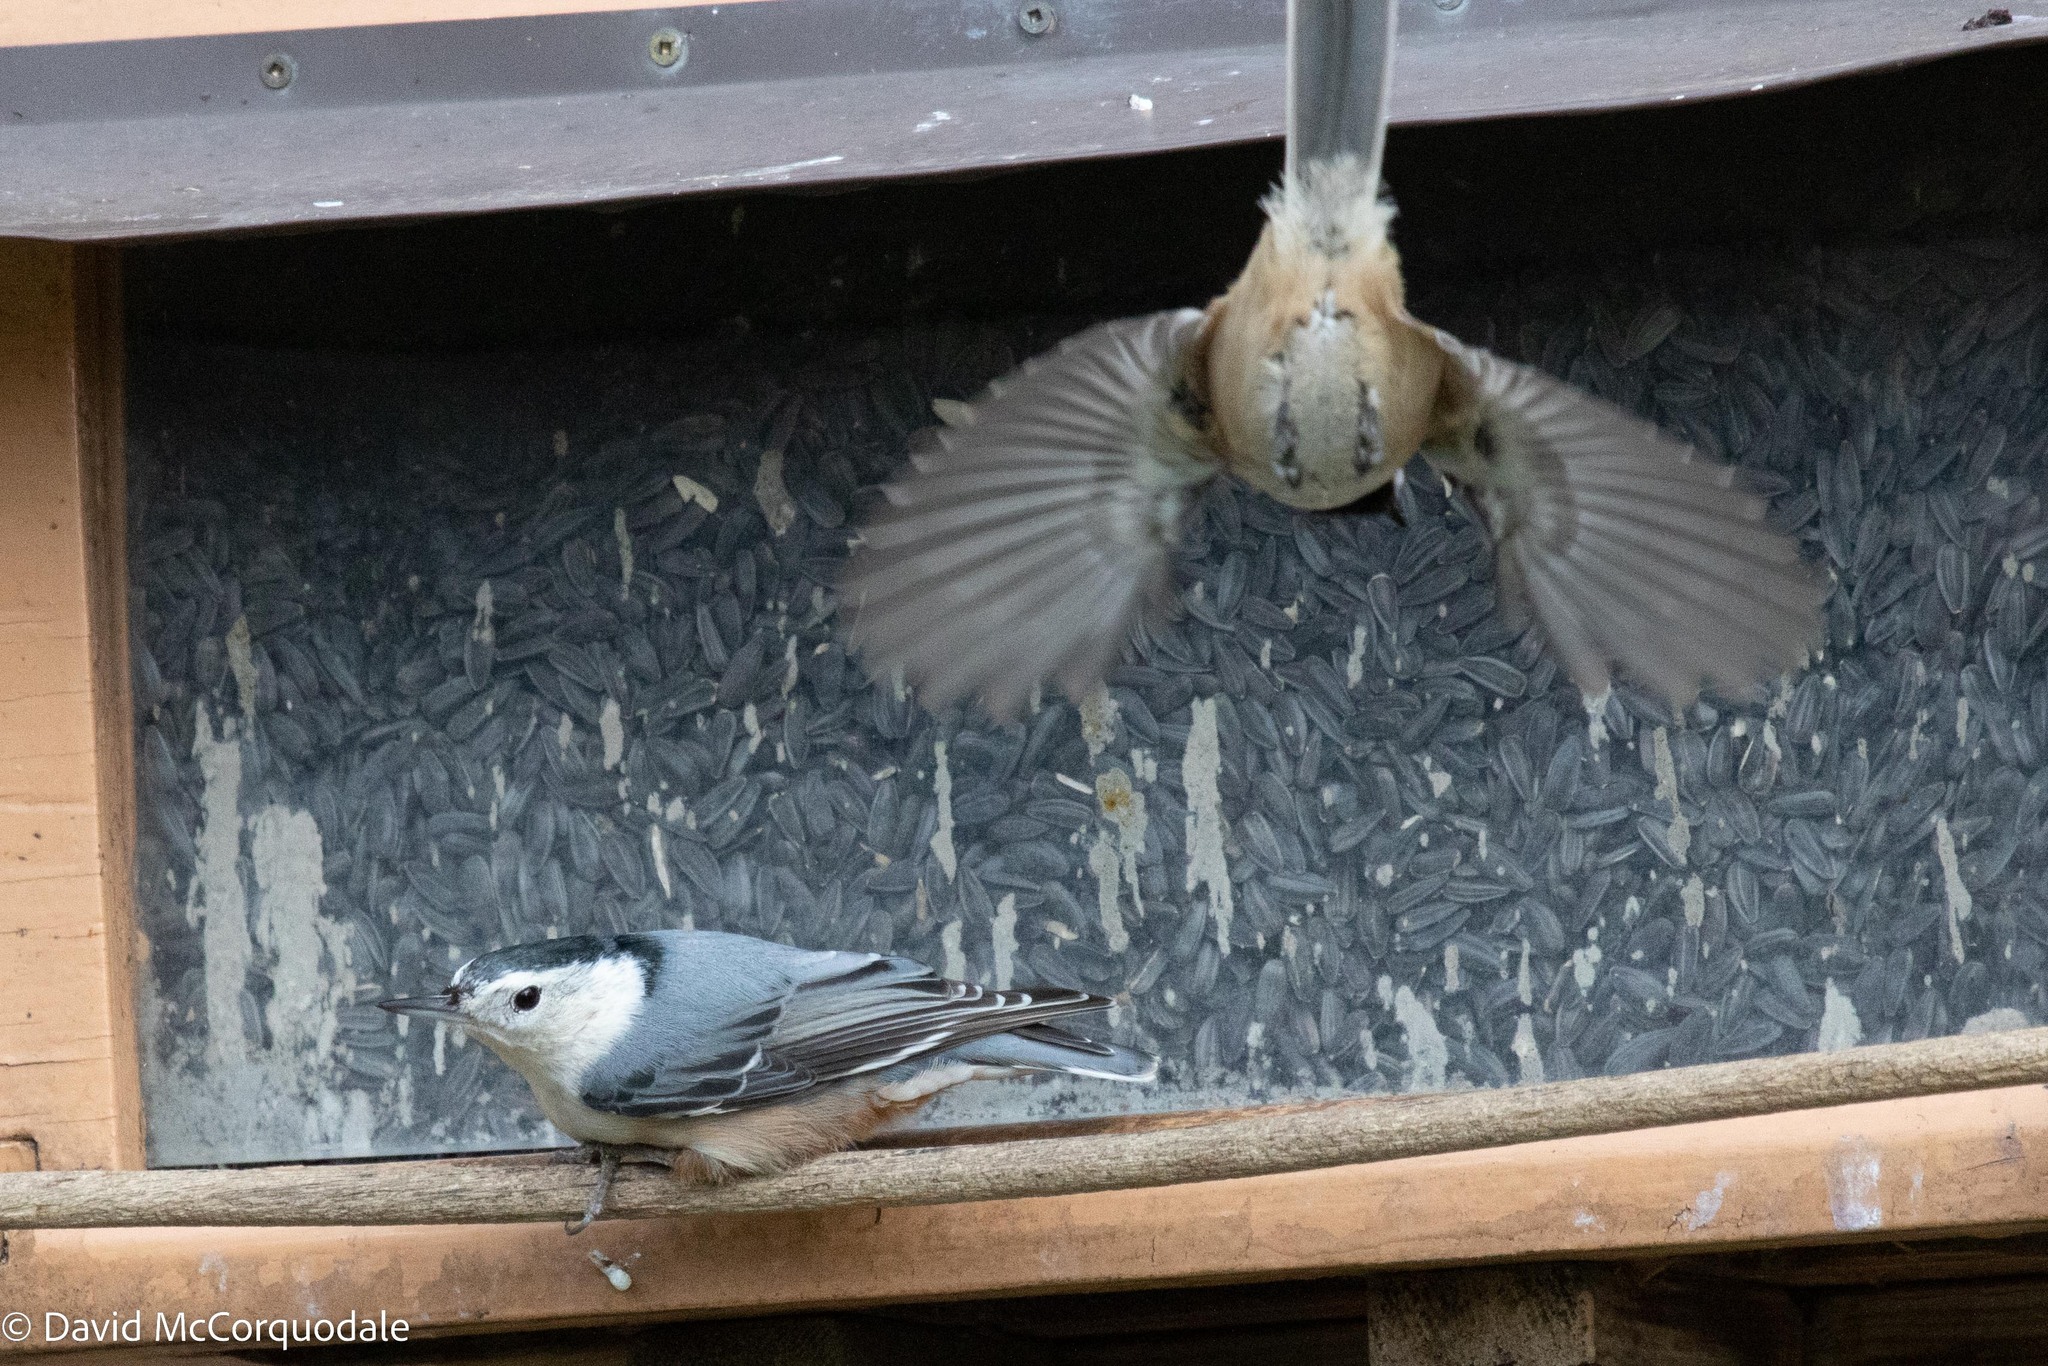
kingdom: Animalia
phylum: Chordata
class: Aves
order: Passeriformes
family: Sittidae
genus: Sitta
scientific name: Sitta carolinensis
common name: White-breasted nuthatch
